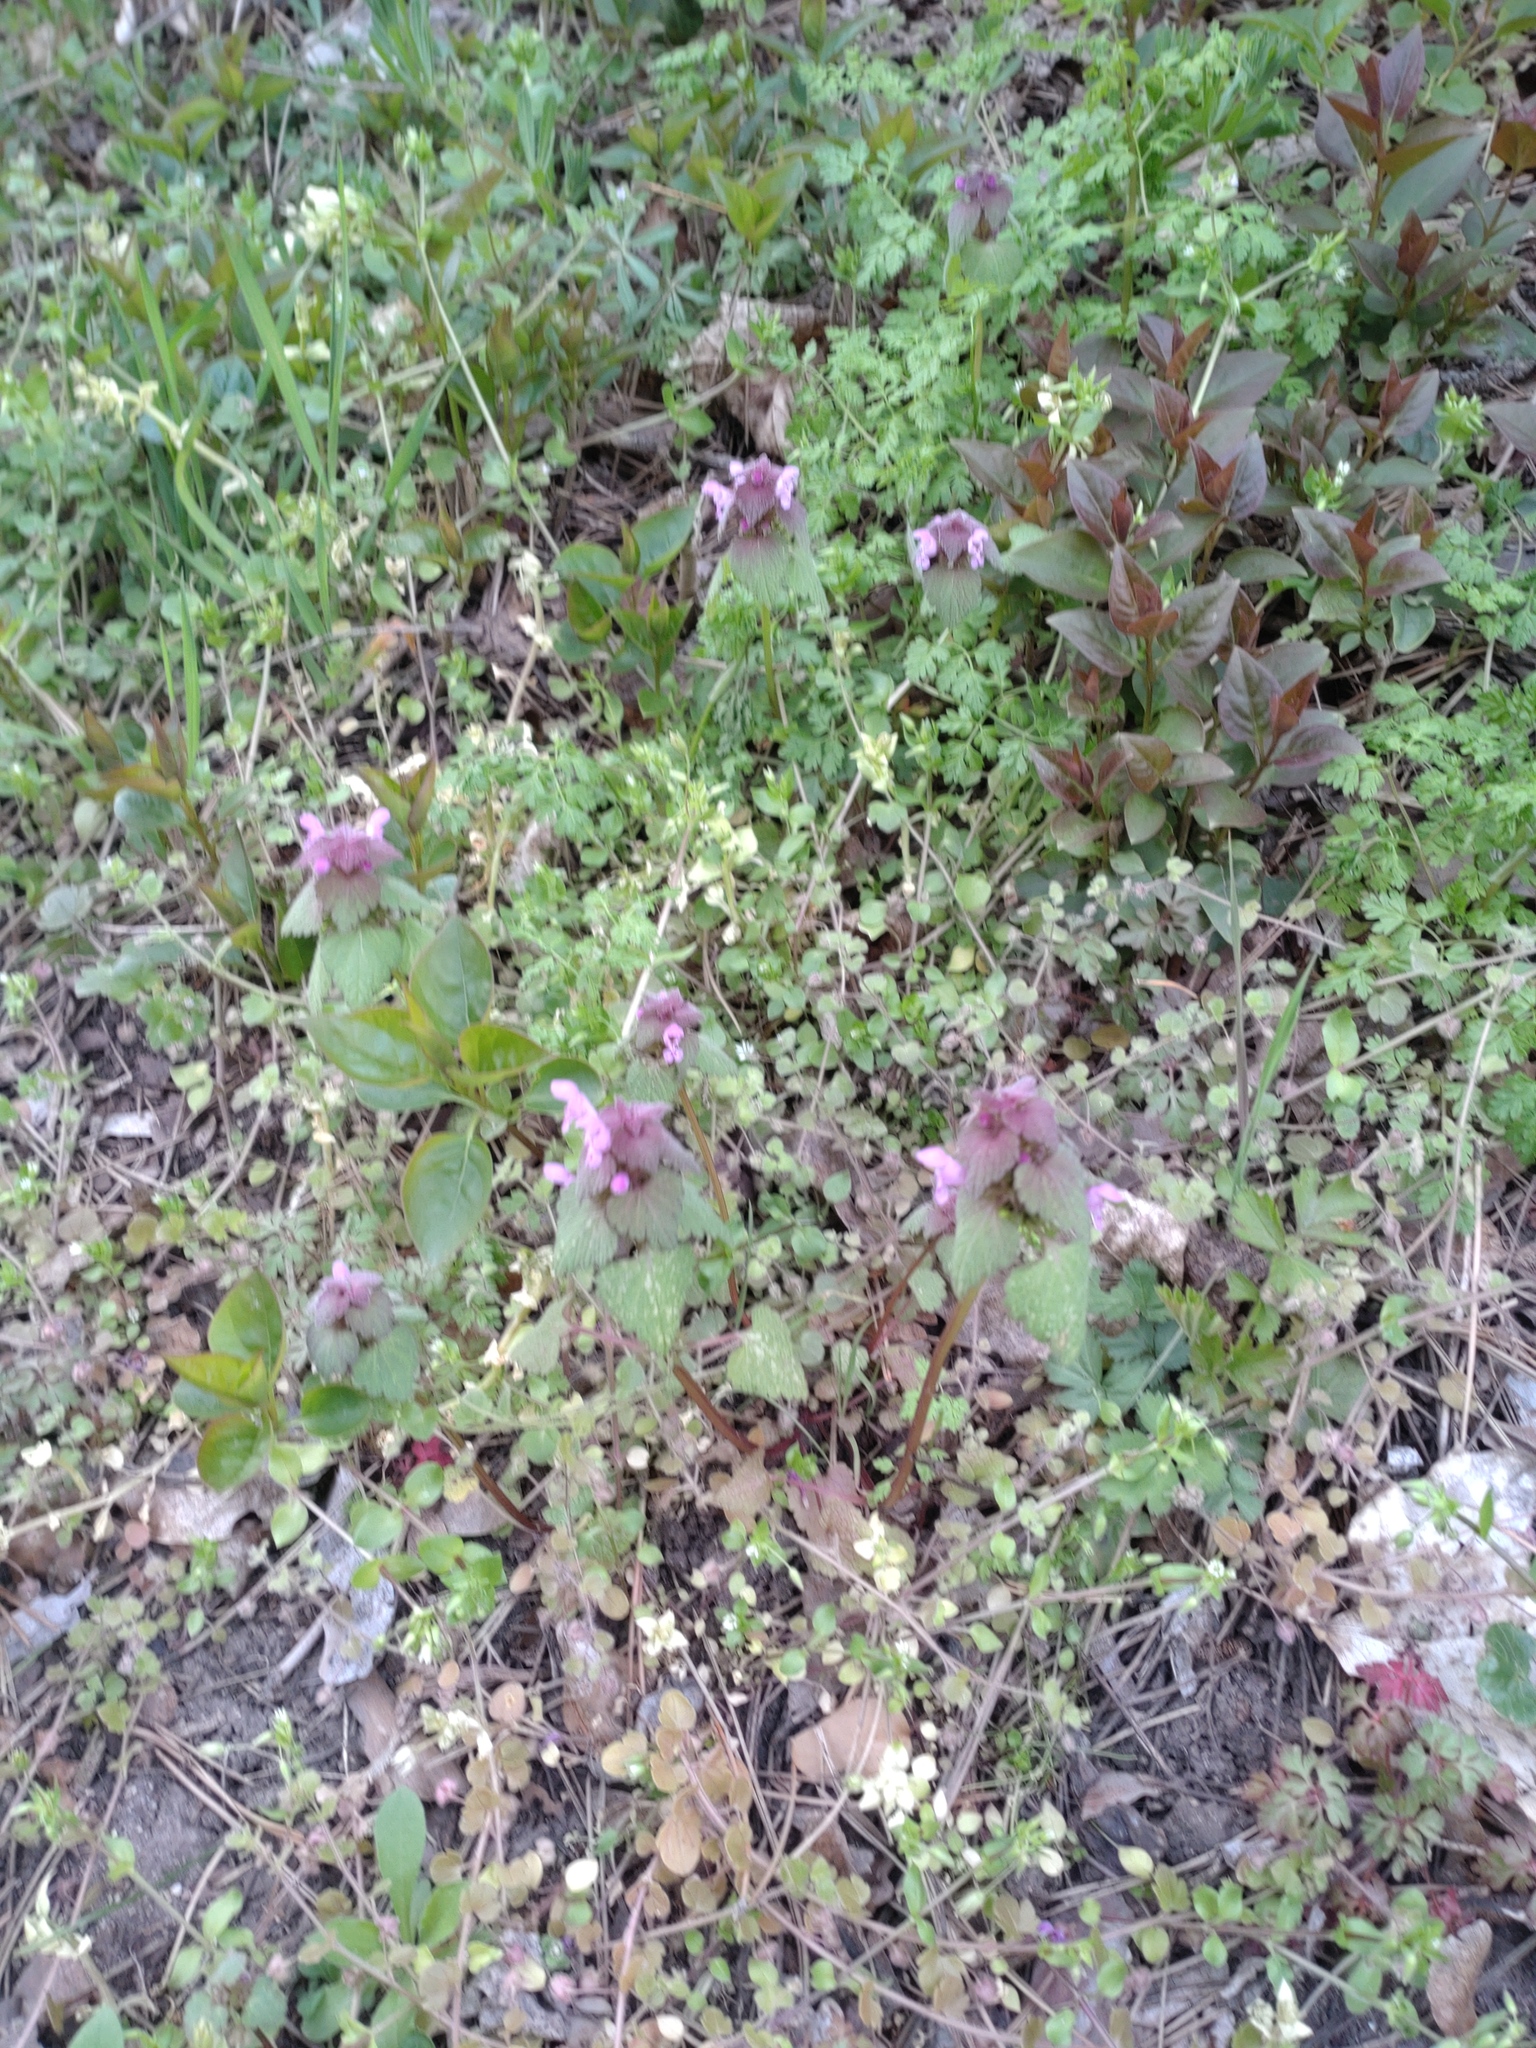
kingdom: Plantae
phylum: Tracheophyta
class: Magnoliopsida
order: Lamiales
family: Lamiaceae
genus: Lamium
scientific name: Lamium purpureum
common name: Red dead-nettle
